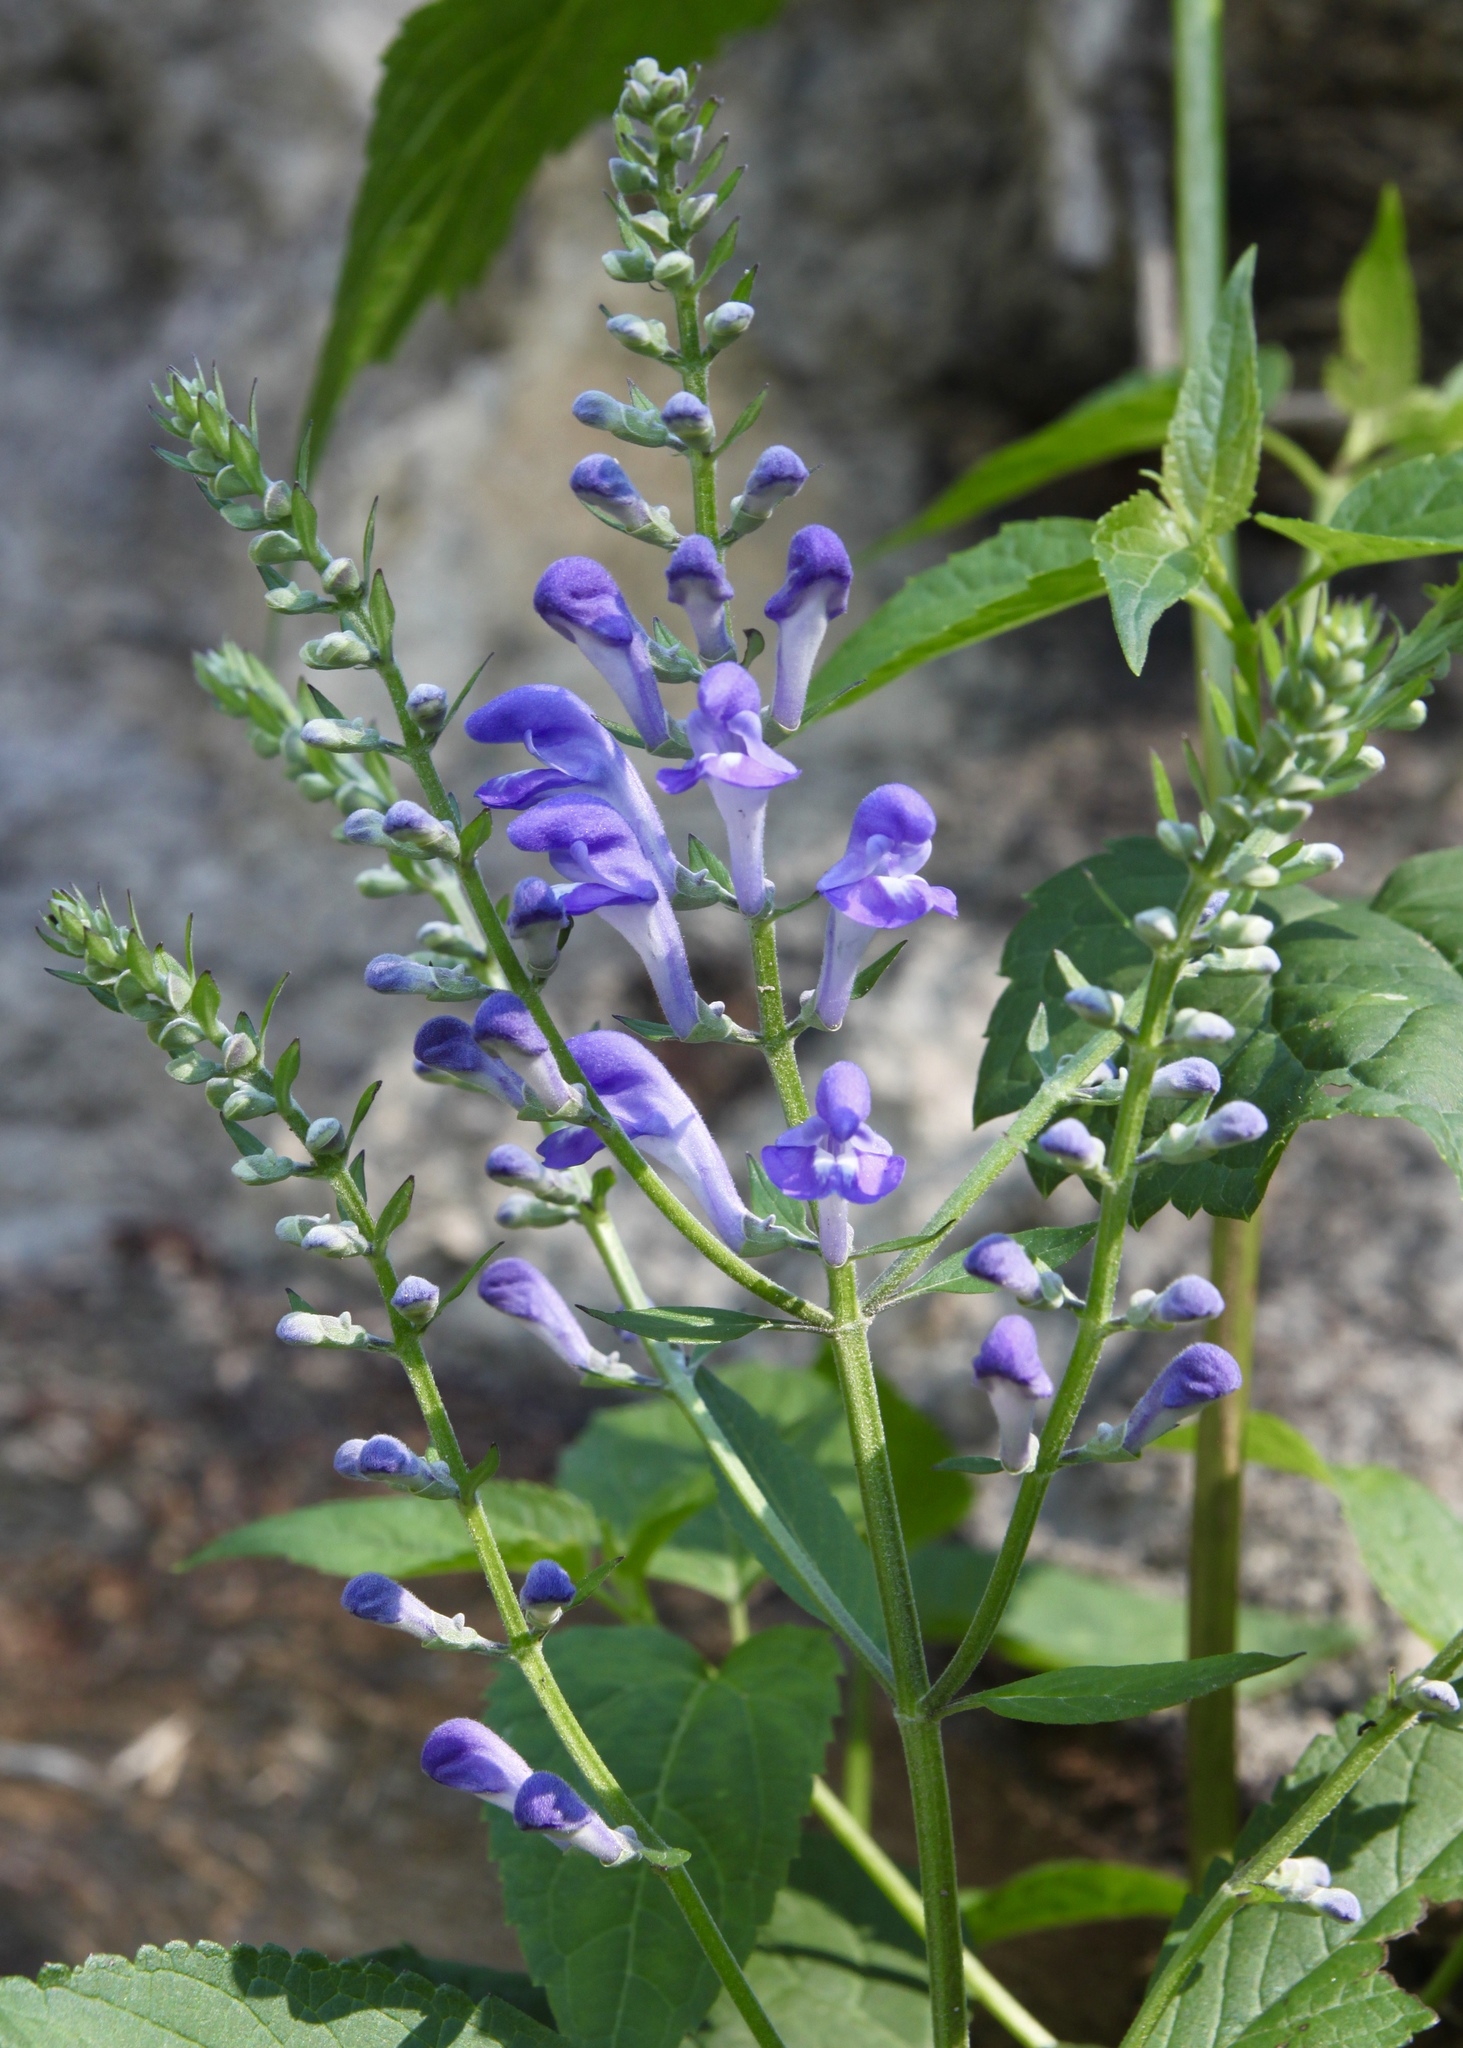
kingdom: Plantae
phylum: Tracheophyta
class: Magnoliopsida
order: Lamiales
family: Lamiaceae
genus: Scutellaria
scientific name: Scutellaria incana
